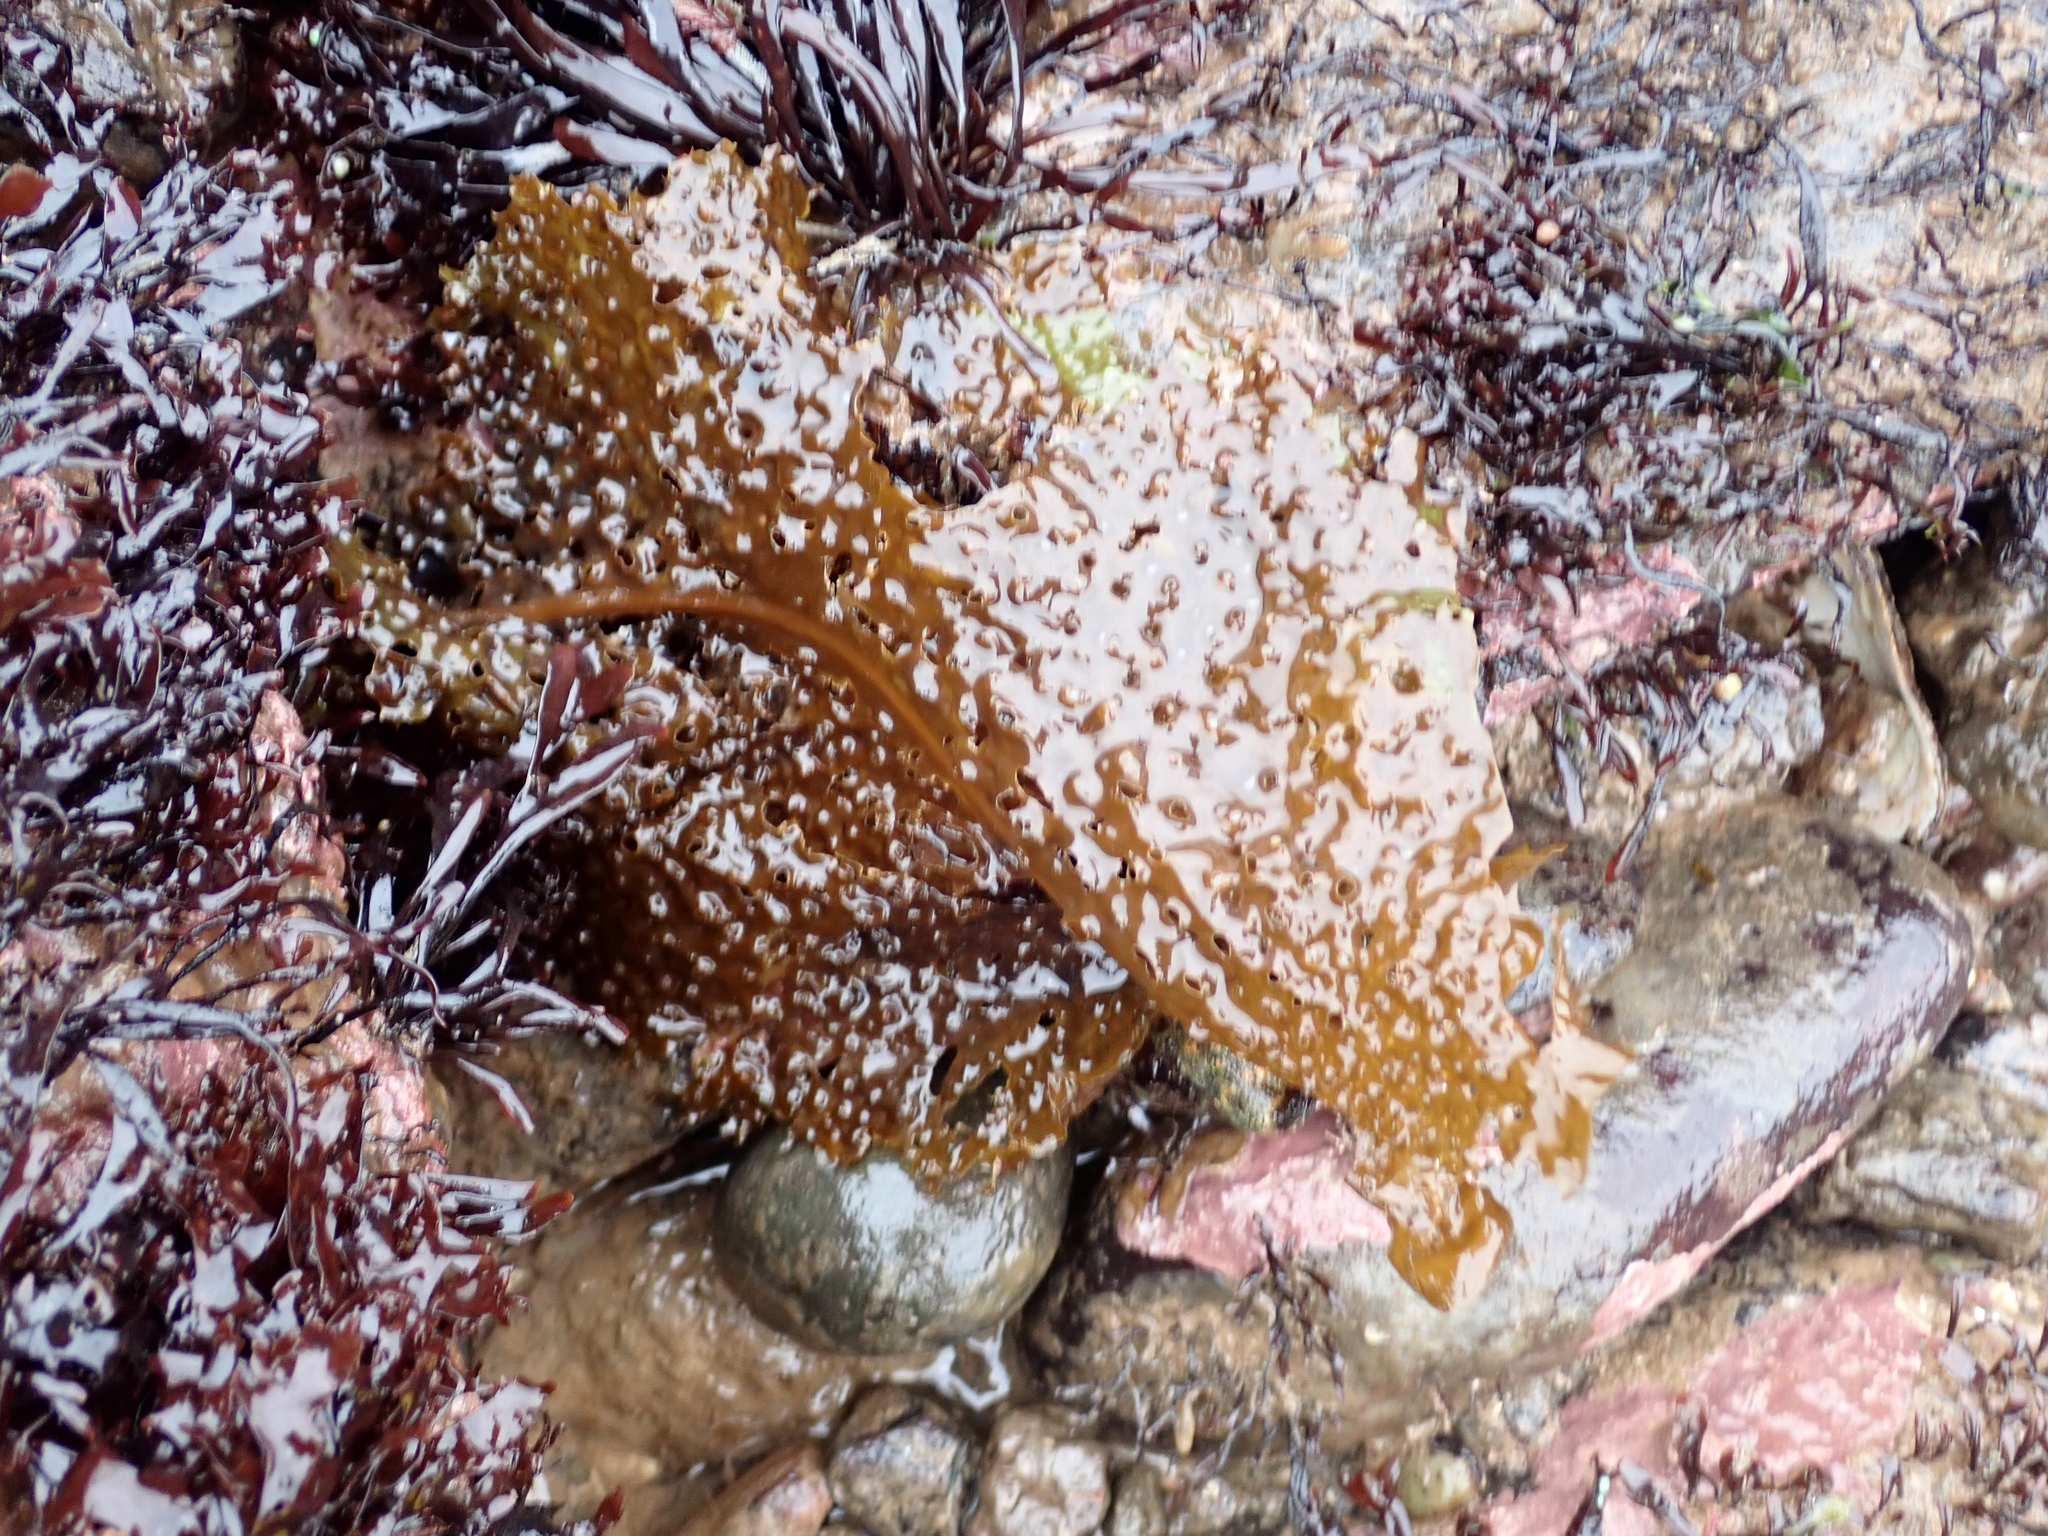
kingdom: Chromista
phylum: Ochrophyta
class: Phaeophyceae
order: Laminariales
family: Costariaceae
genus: Agarum
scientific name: Agarum clathratum
